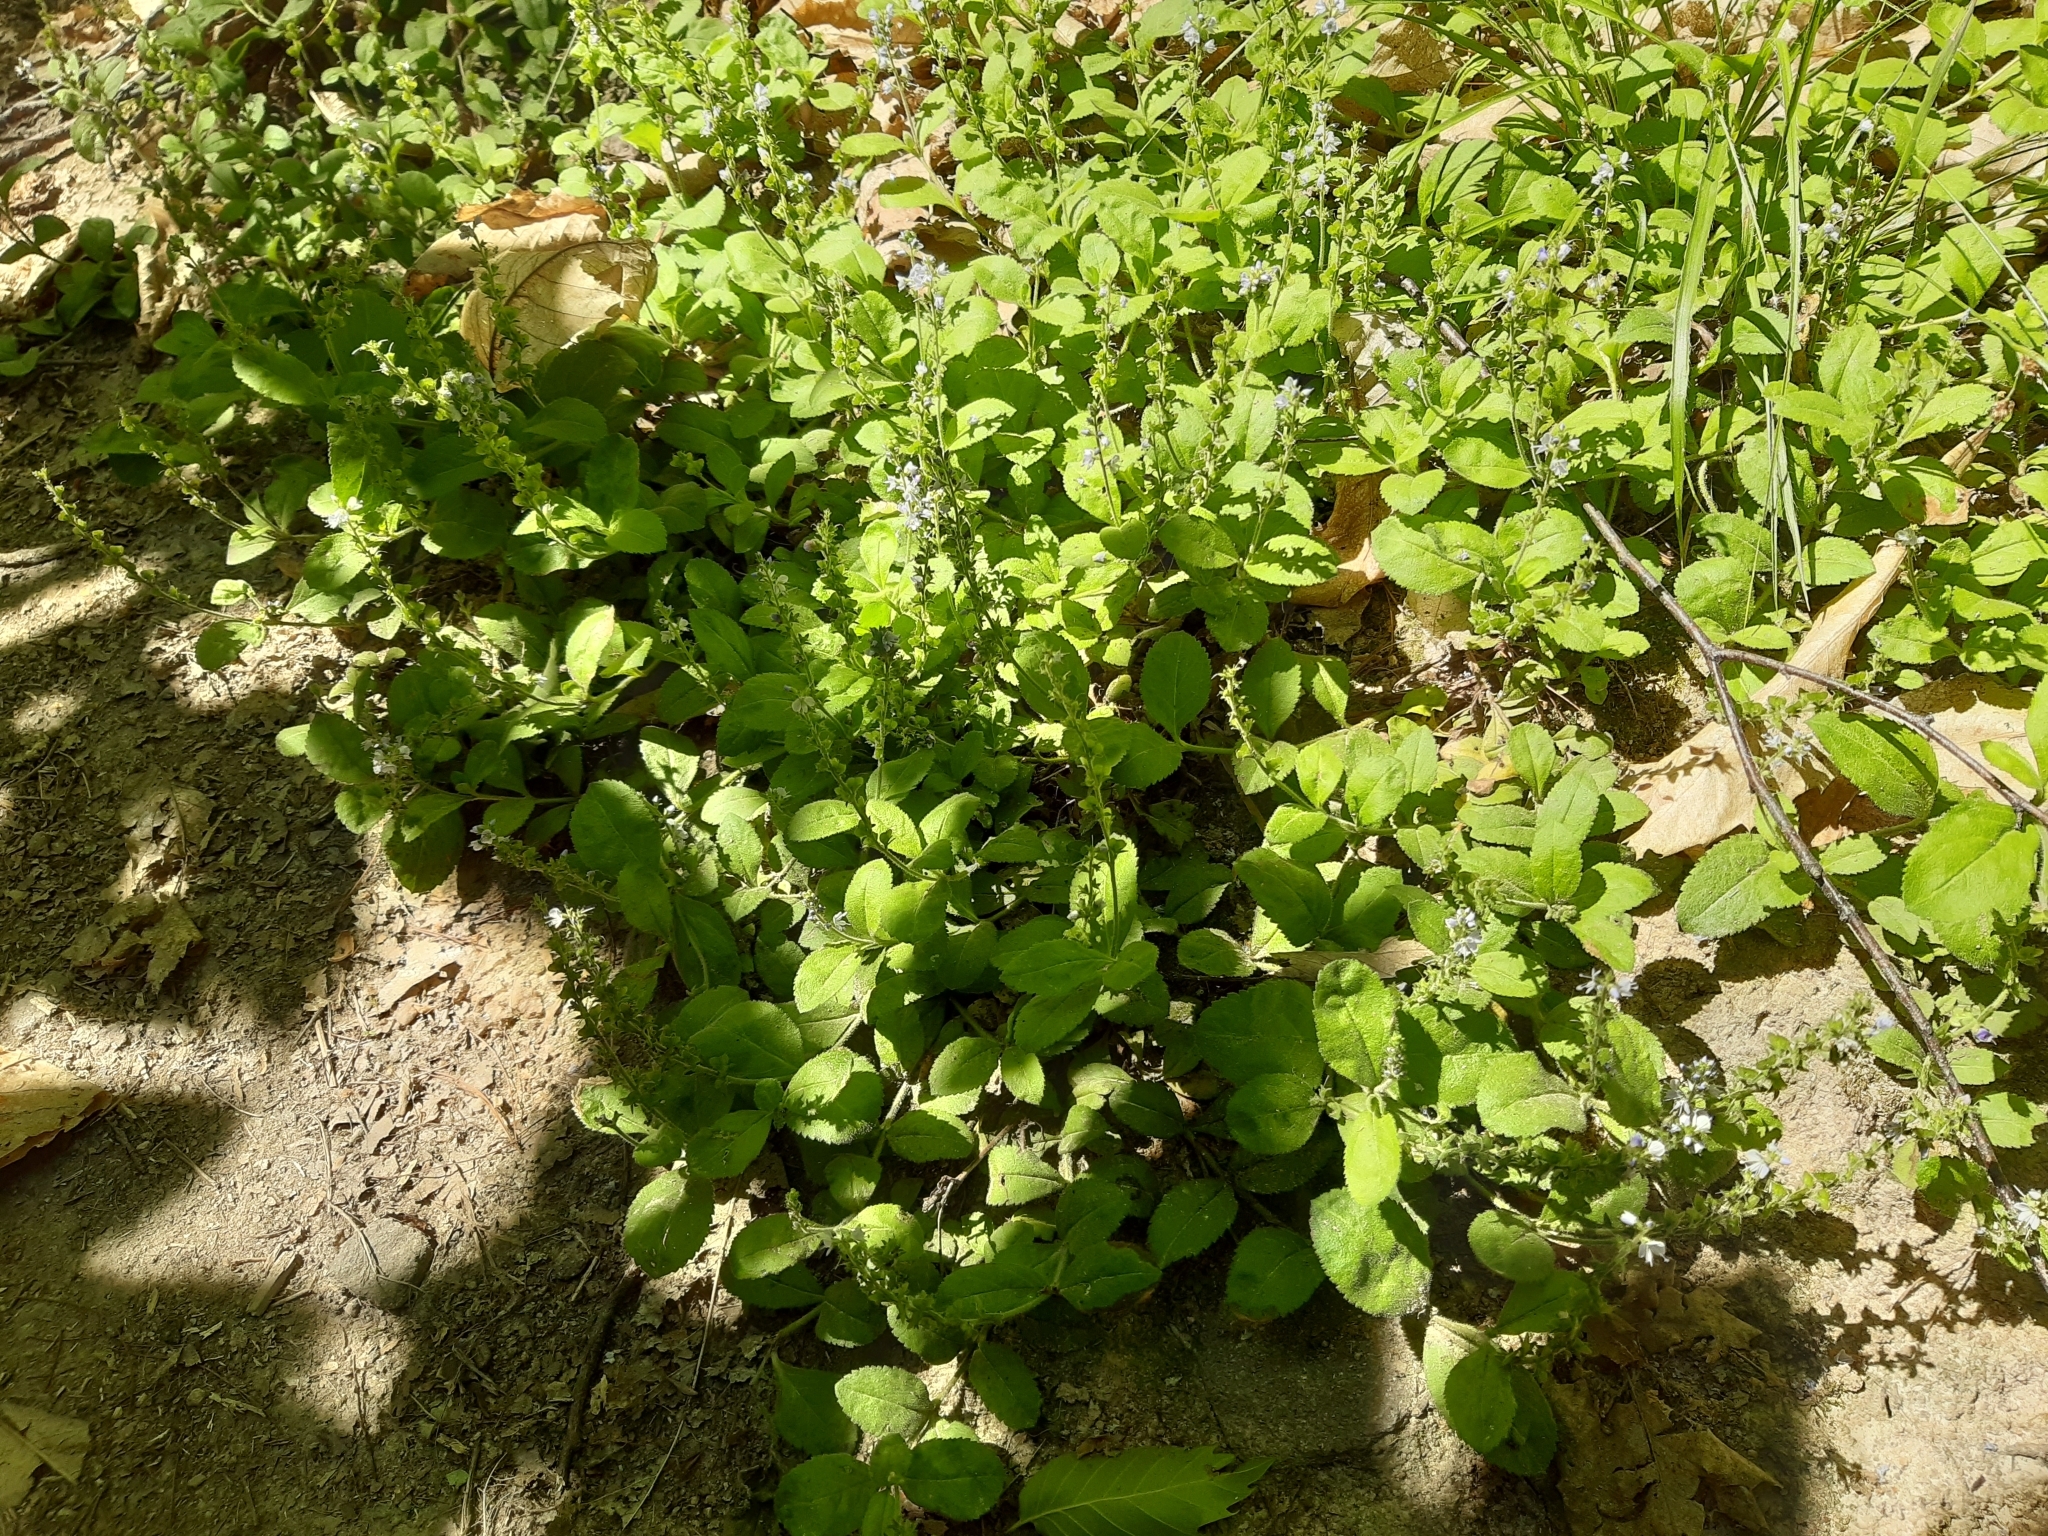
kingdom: Plantae
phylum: Tracheophyta
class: Magnoliopsida
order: Lamiales
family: Plantaginaceae
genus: Veronica
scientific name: Veronica officinalis
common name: Common speedwell
